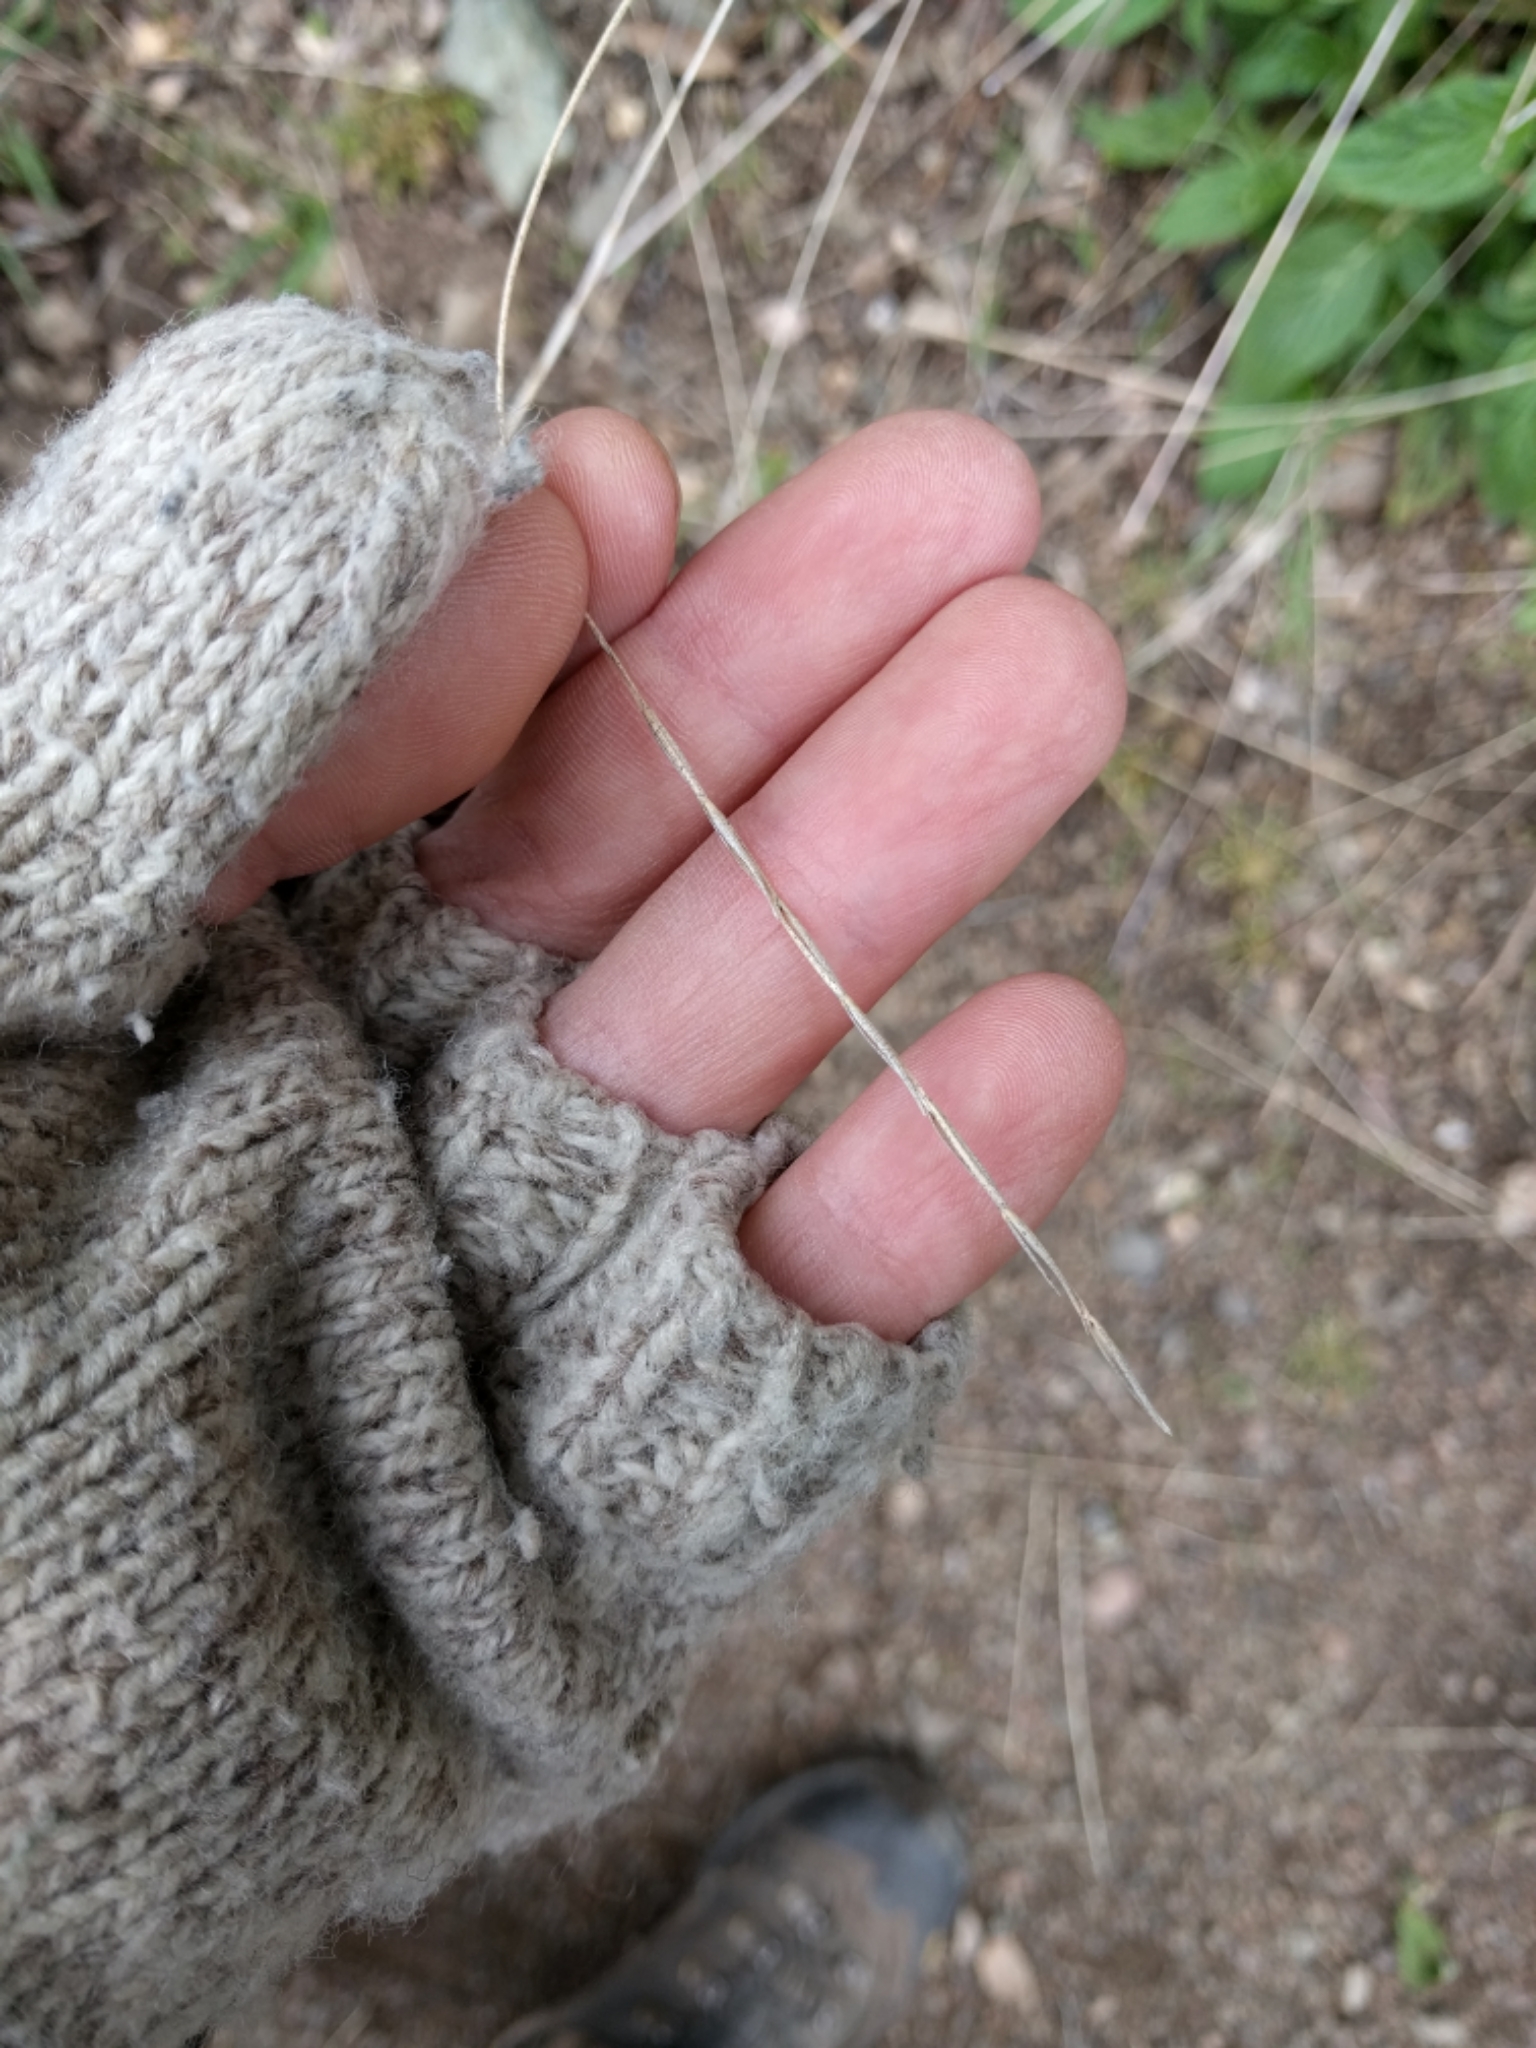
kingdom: Plantae
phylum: Tracheophyta
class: Liliopsida
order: Poales
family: Poaceae
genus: Elymus
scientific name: Elymus glaucus
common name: Blue wild rye
